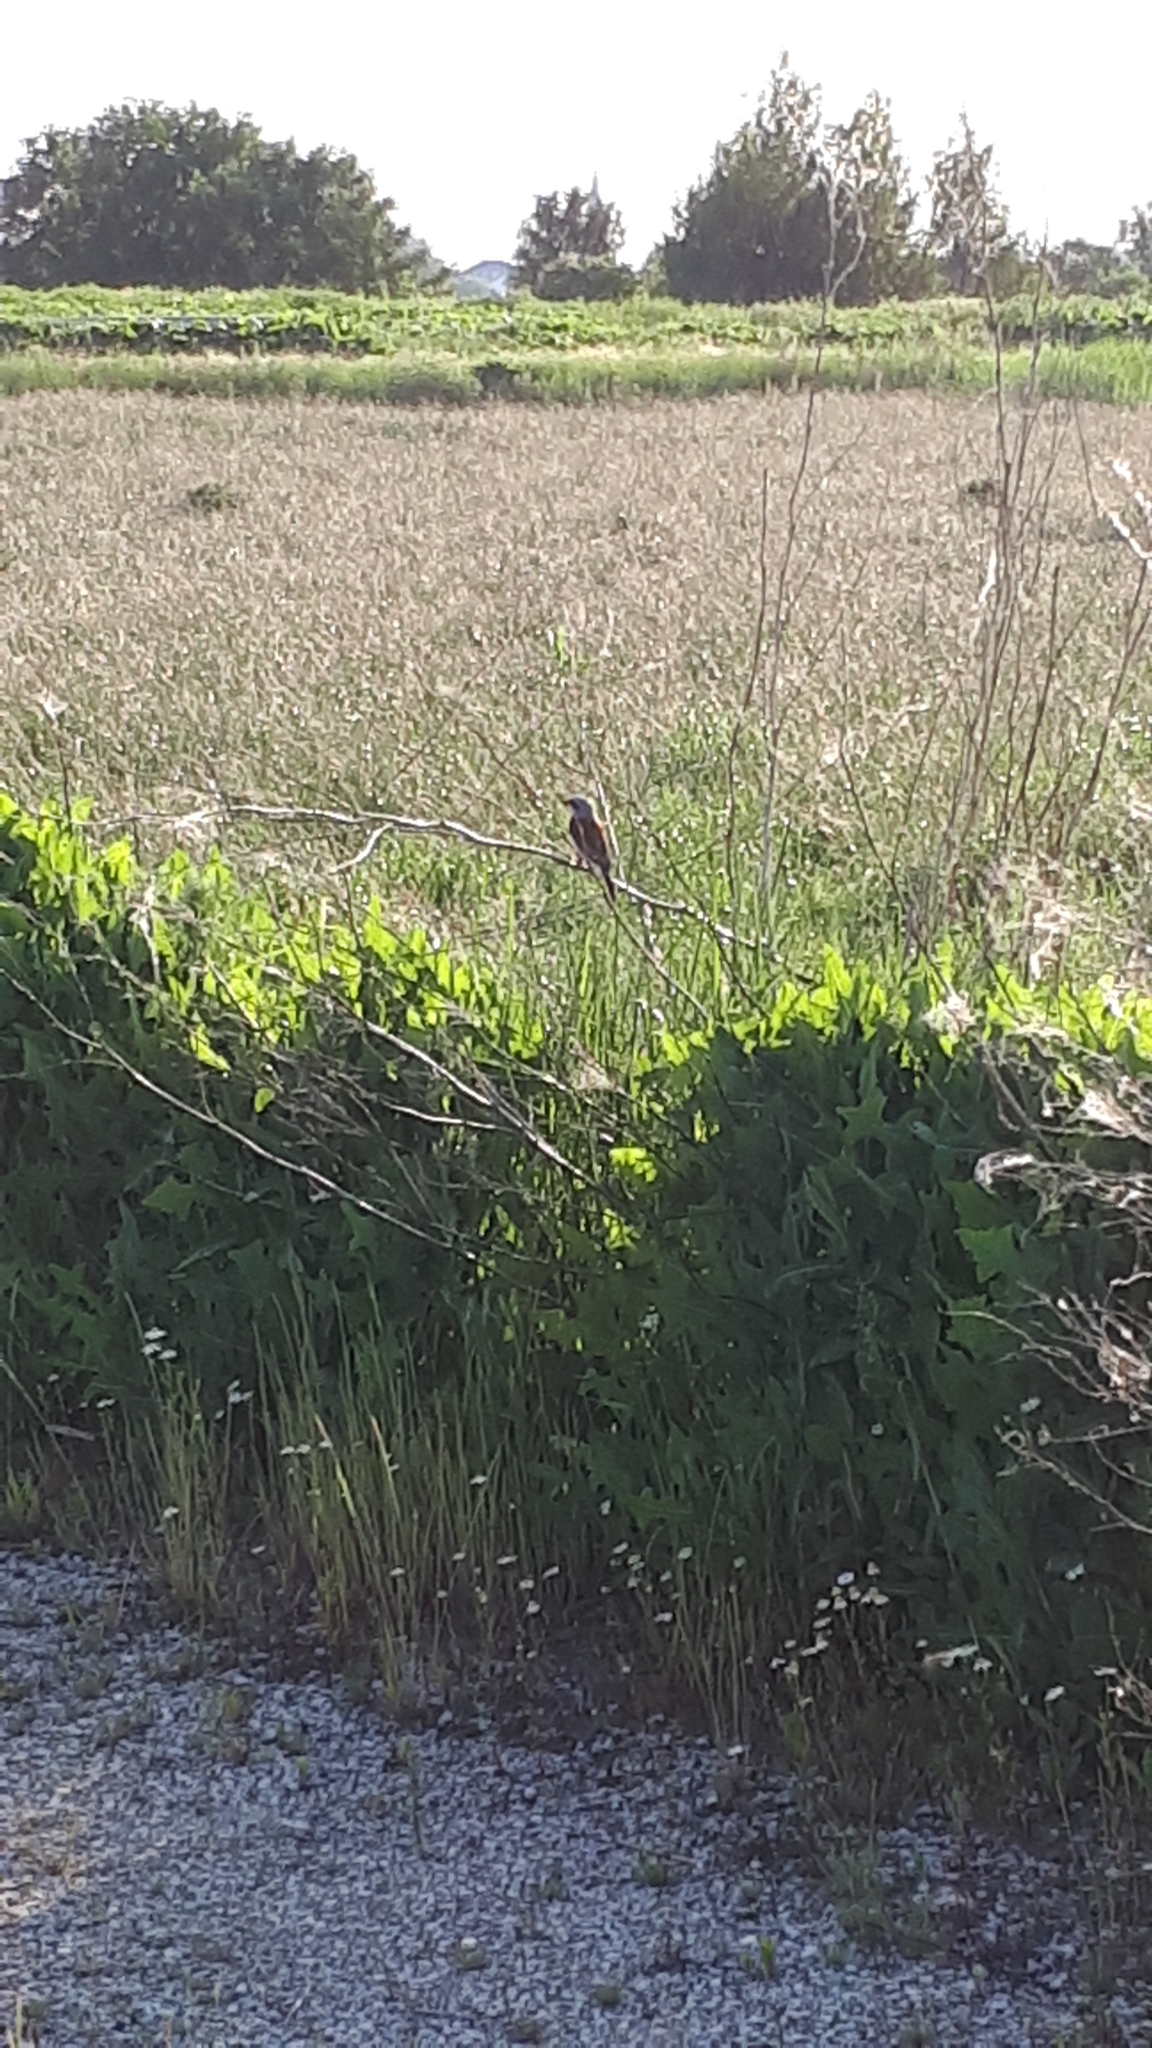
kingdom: Animalia
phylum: Chordata
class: Aves
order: Passeriformes
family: Laniidae
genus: Lanius
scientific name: Lanius collurio
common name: Red-backed shrike
